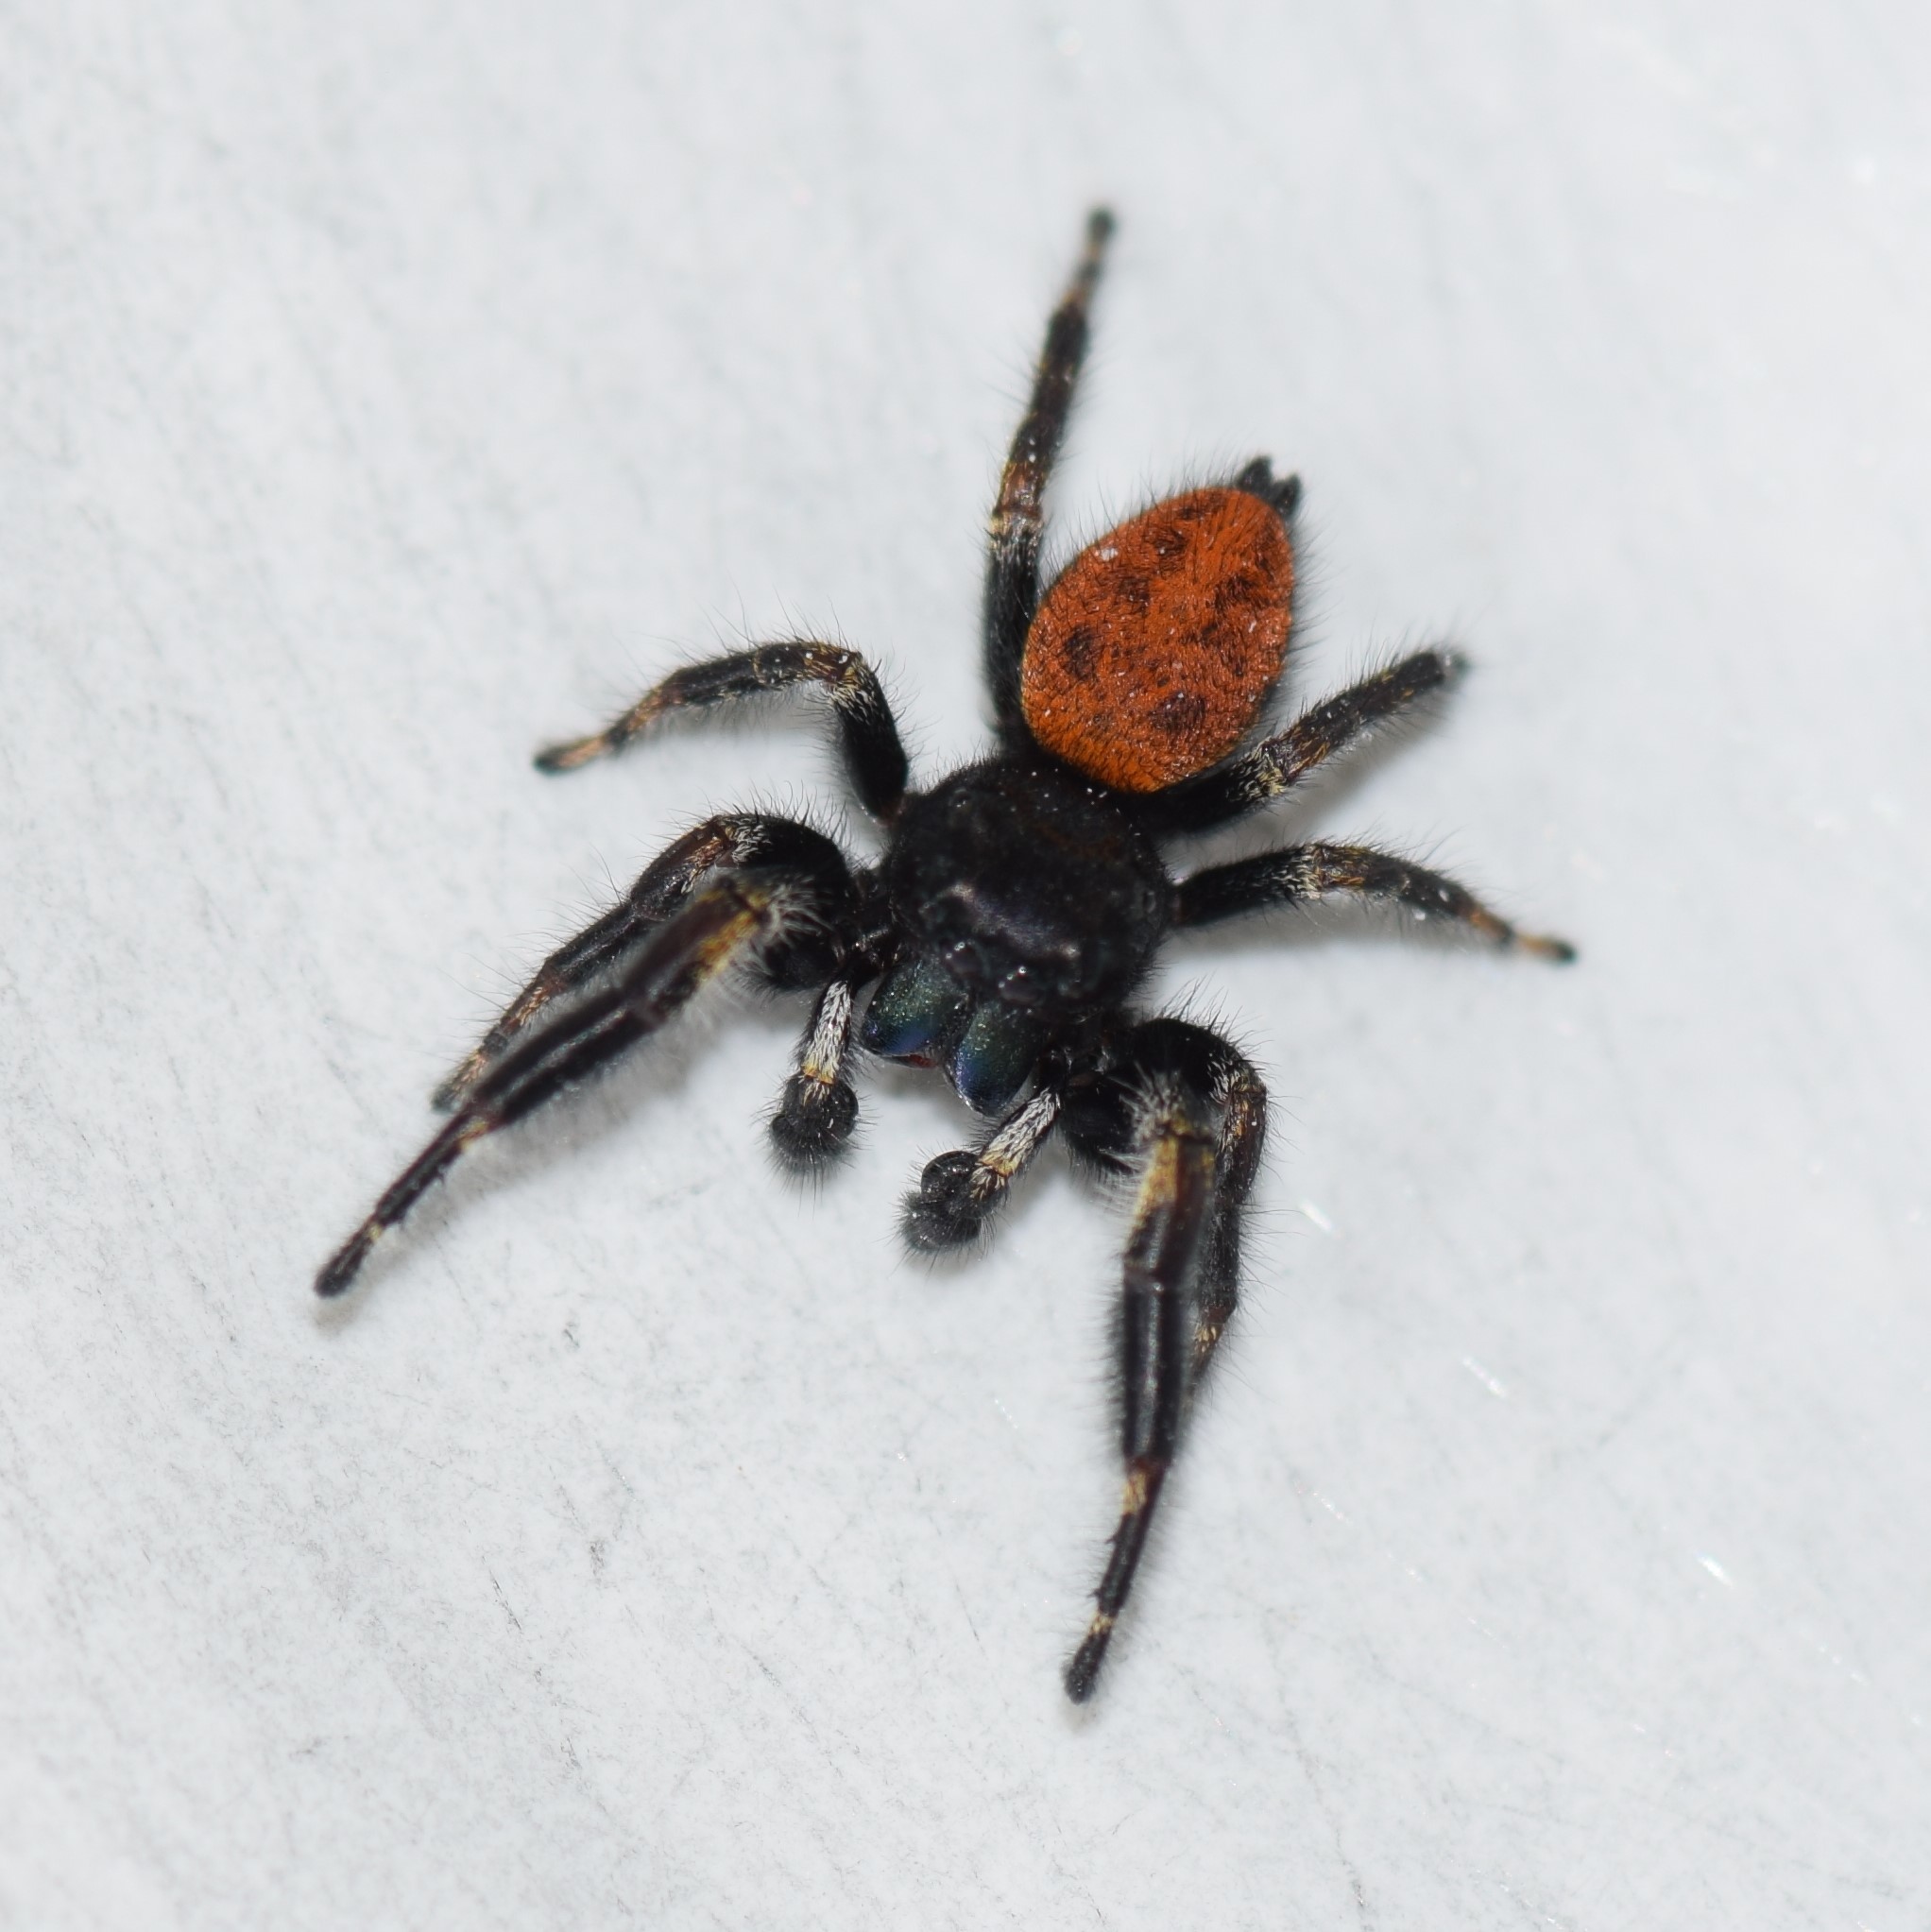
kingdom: Animalia
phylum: Arthropoda
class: Arachnida
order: Araneae
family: Salticidae
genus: Phidippus
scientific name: Phidippus princeps
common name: Grayish jumping spider
